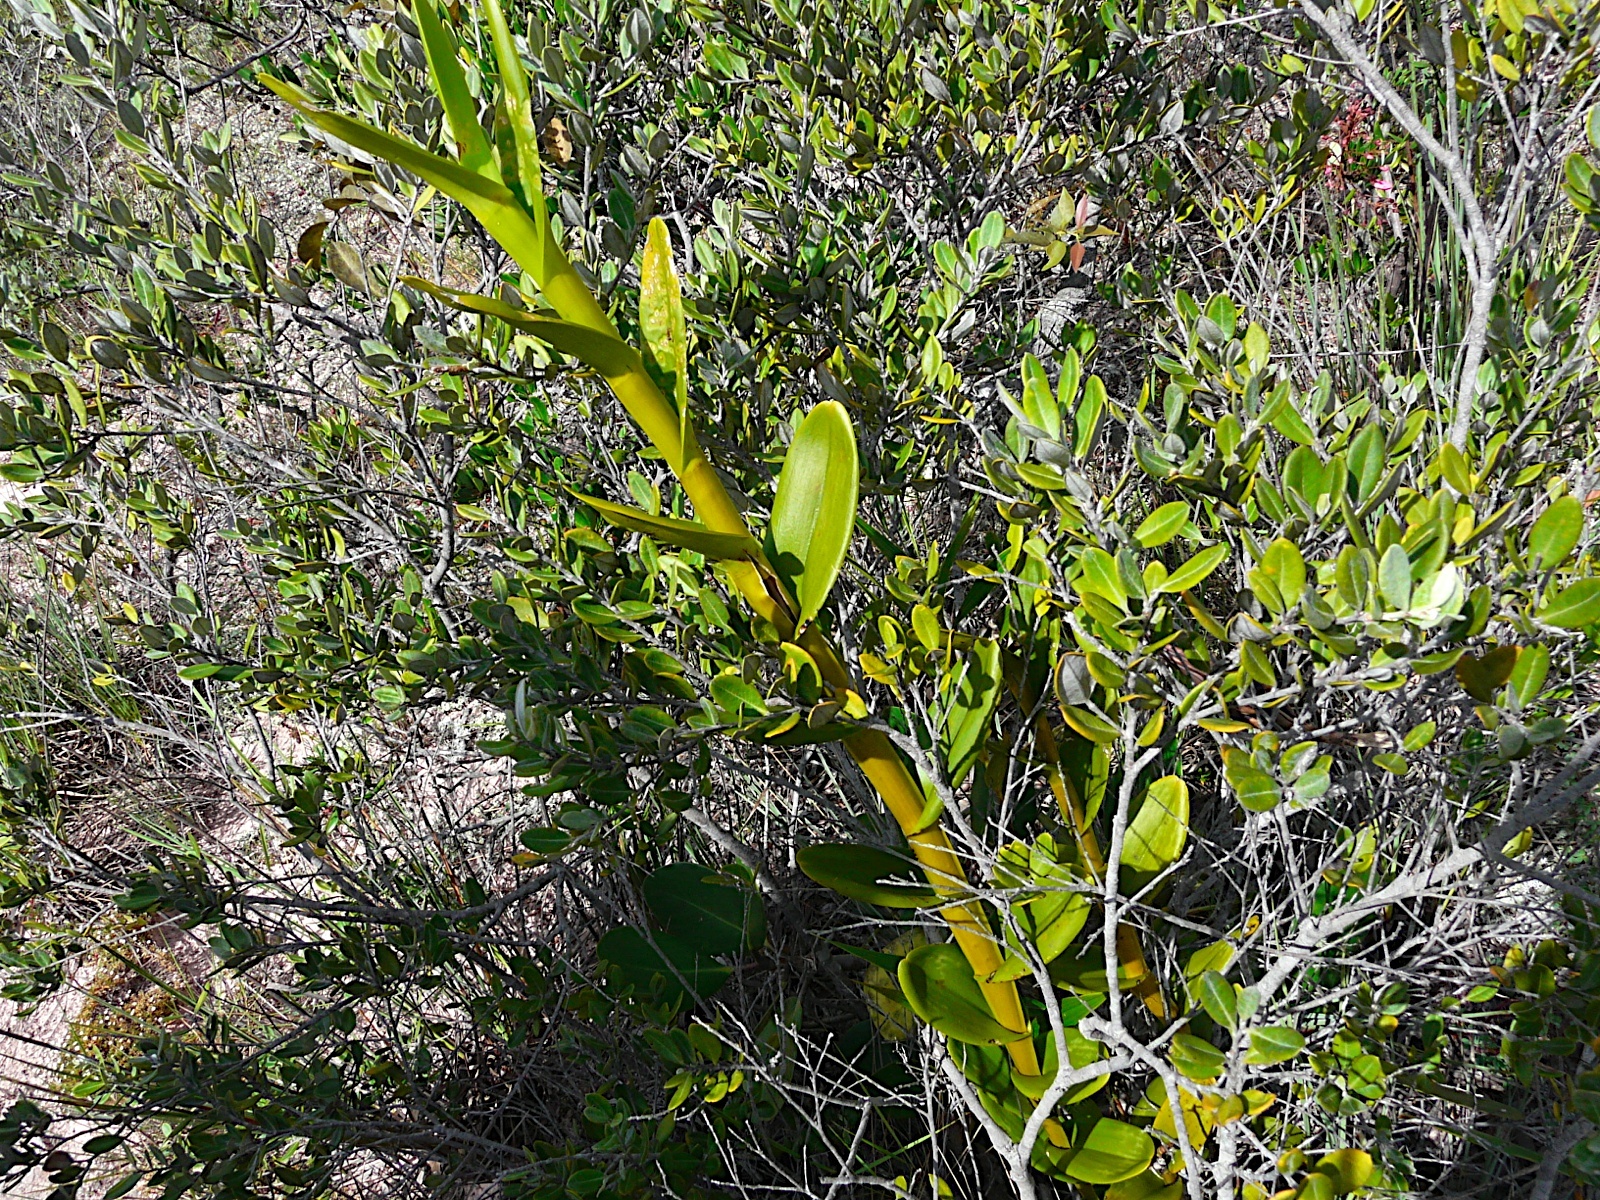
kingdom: Plantae
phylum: Tracheophyta
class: Liliopsida
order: Asparagales
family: Orchidaceae
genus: Epidendrum
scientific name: Epidendrum
